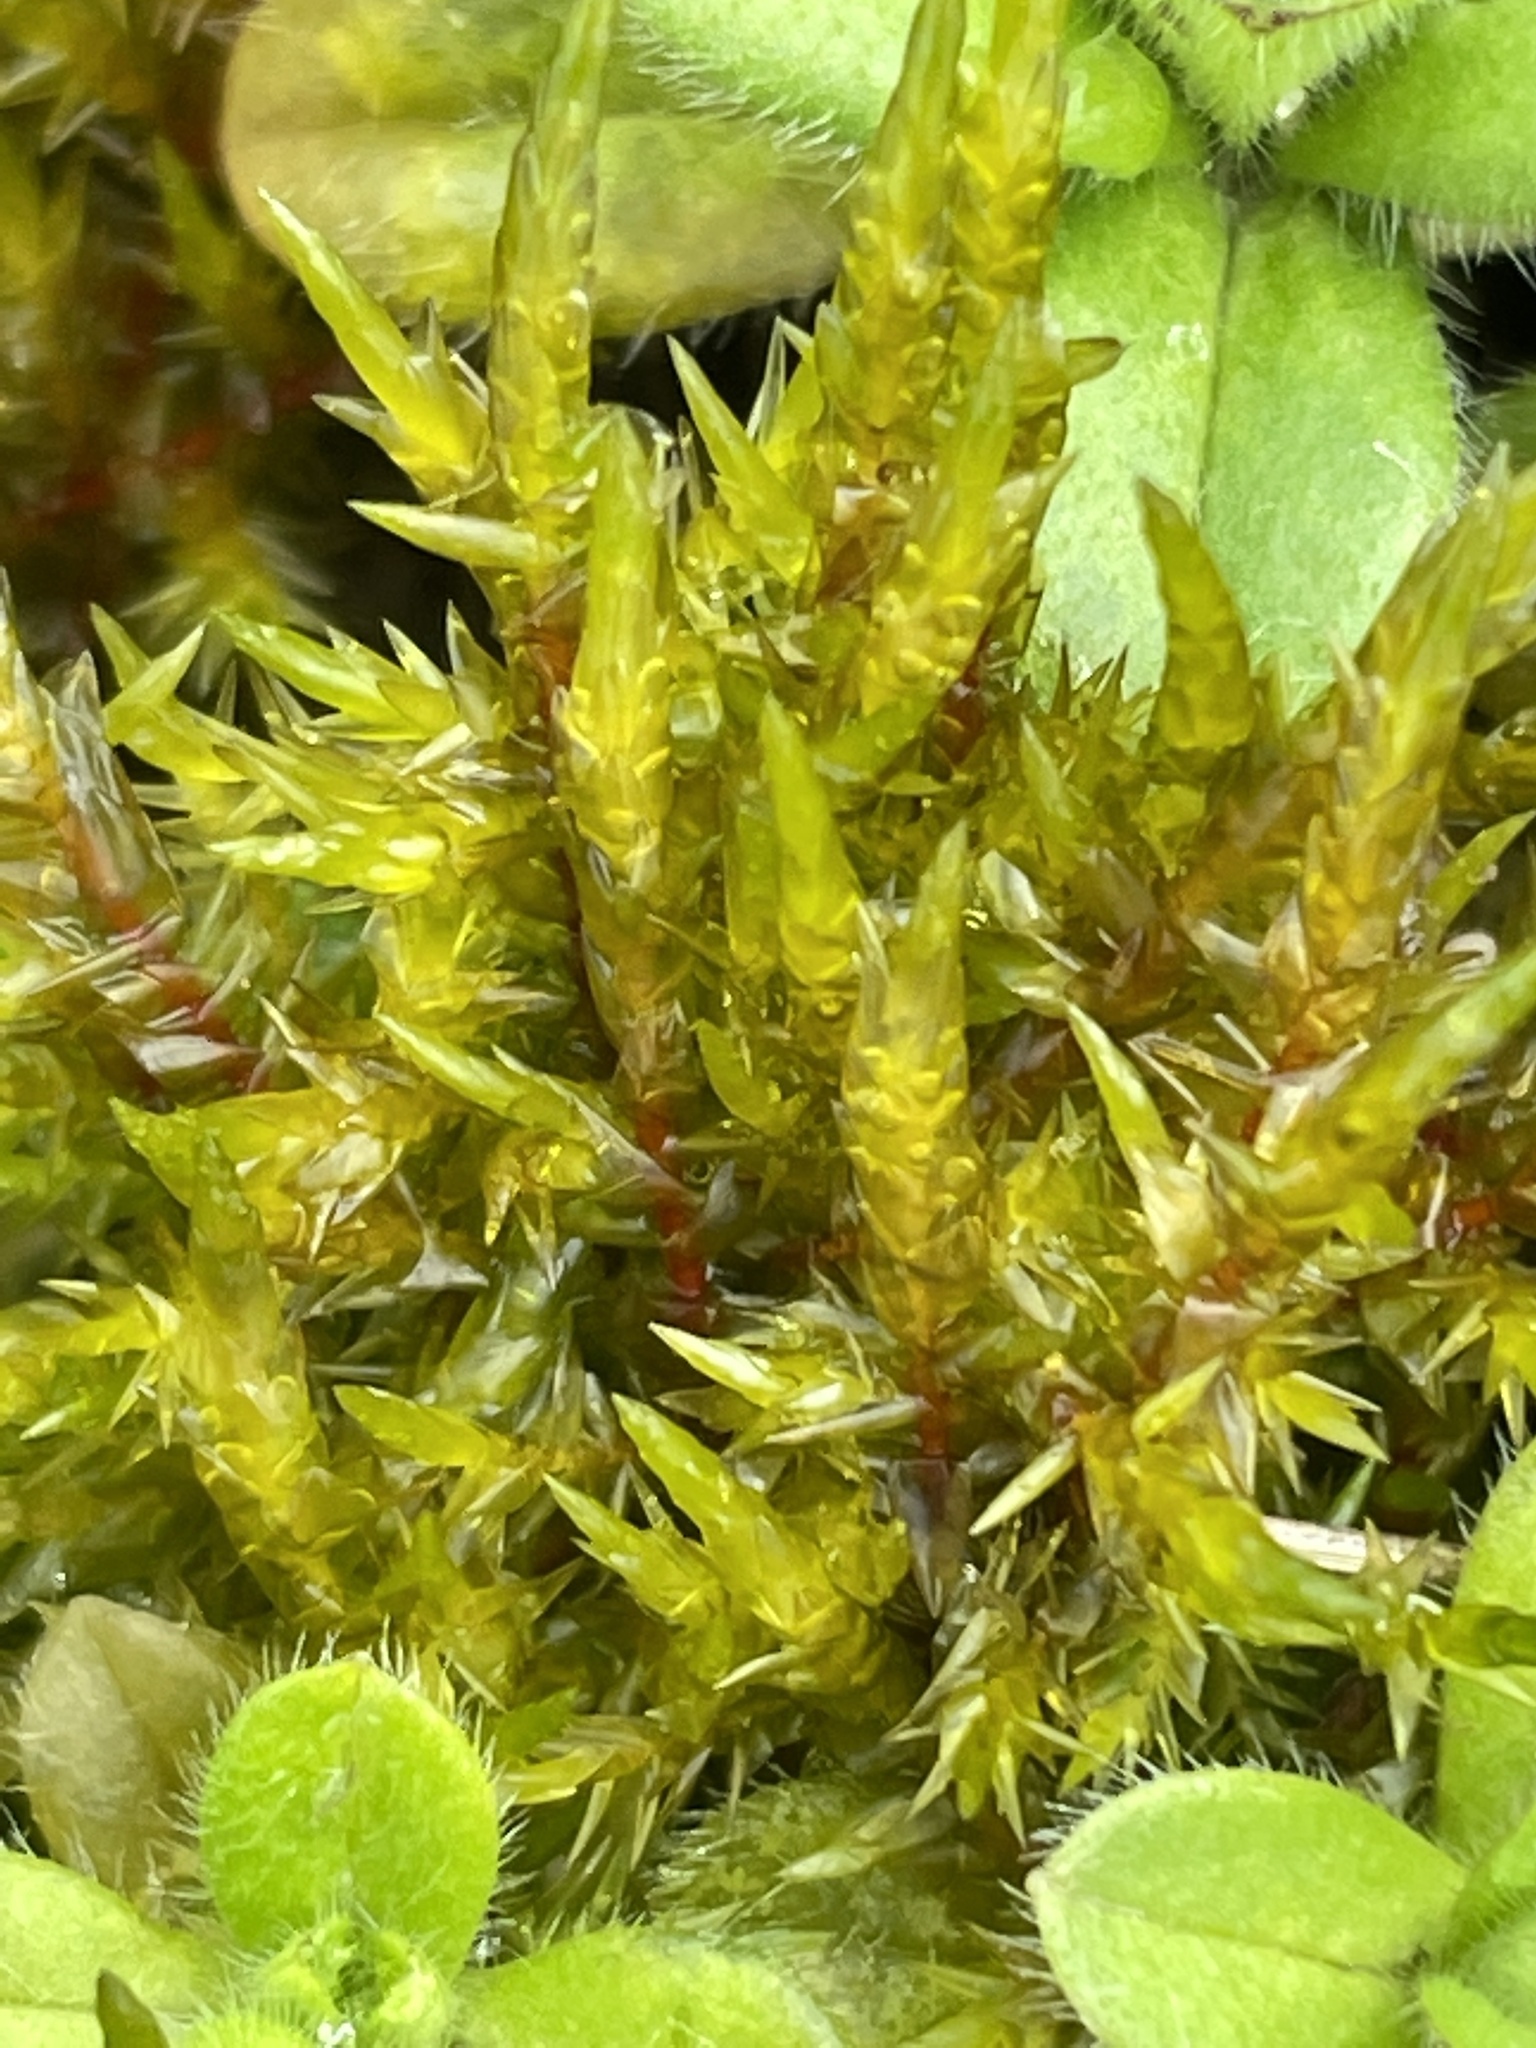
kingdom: Plantae
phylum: Bryophyta
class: Bryopsida
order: Hypnales
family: Pylaisiaceae
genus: Calliergonella
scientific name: Calliergonella cuspidata
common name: Common large wetland moss
